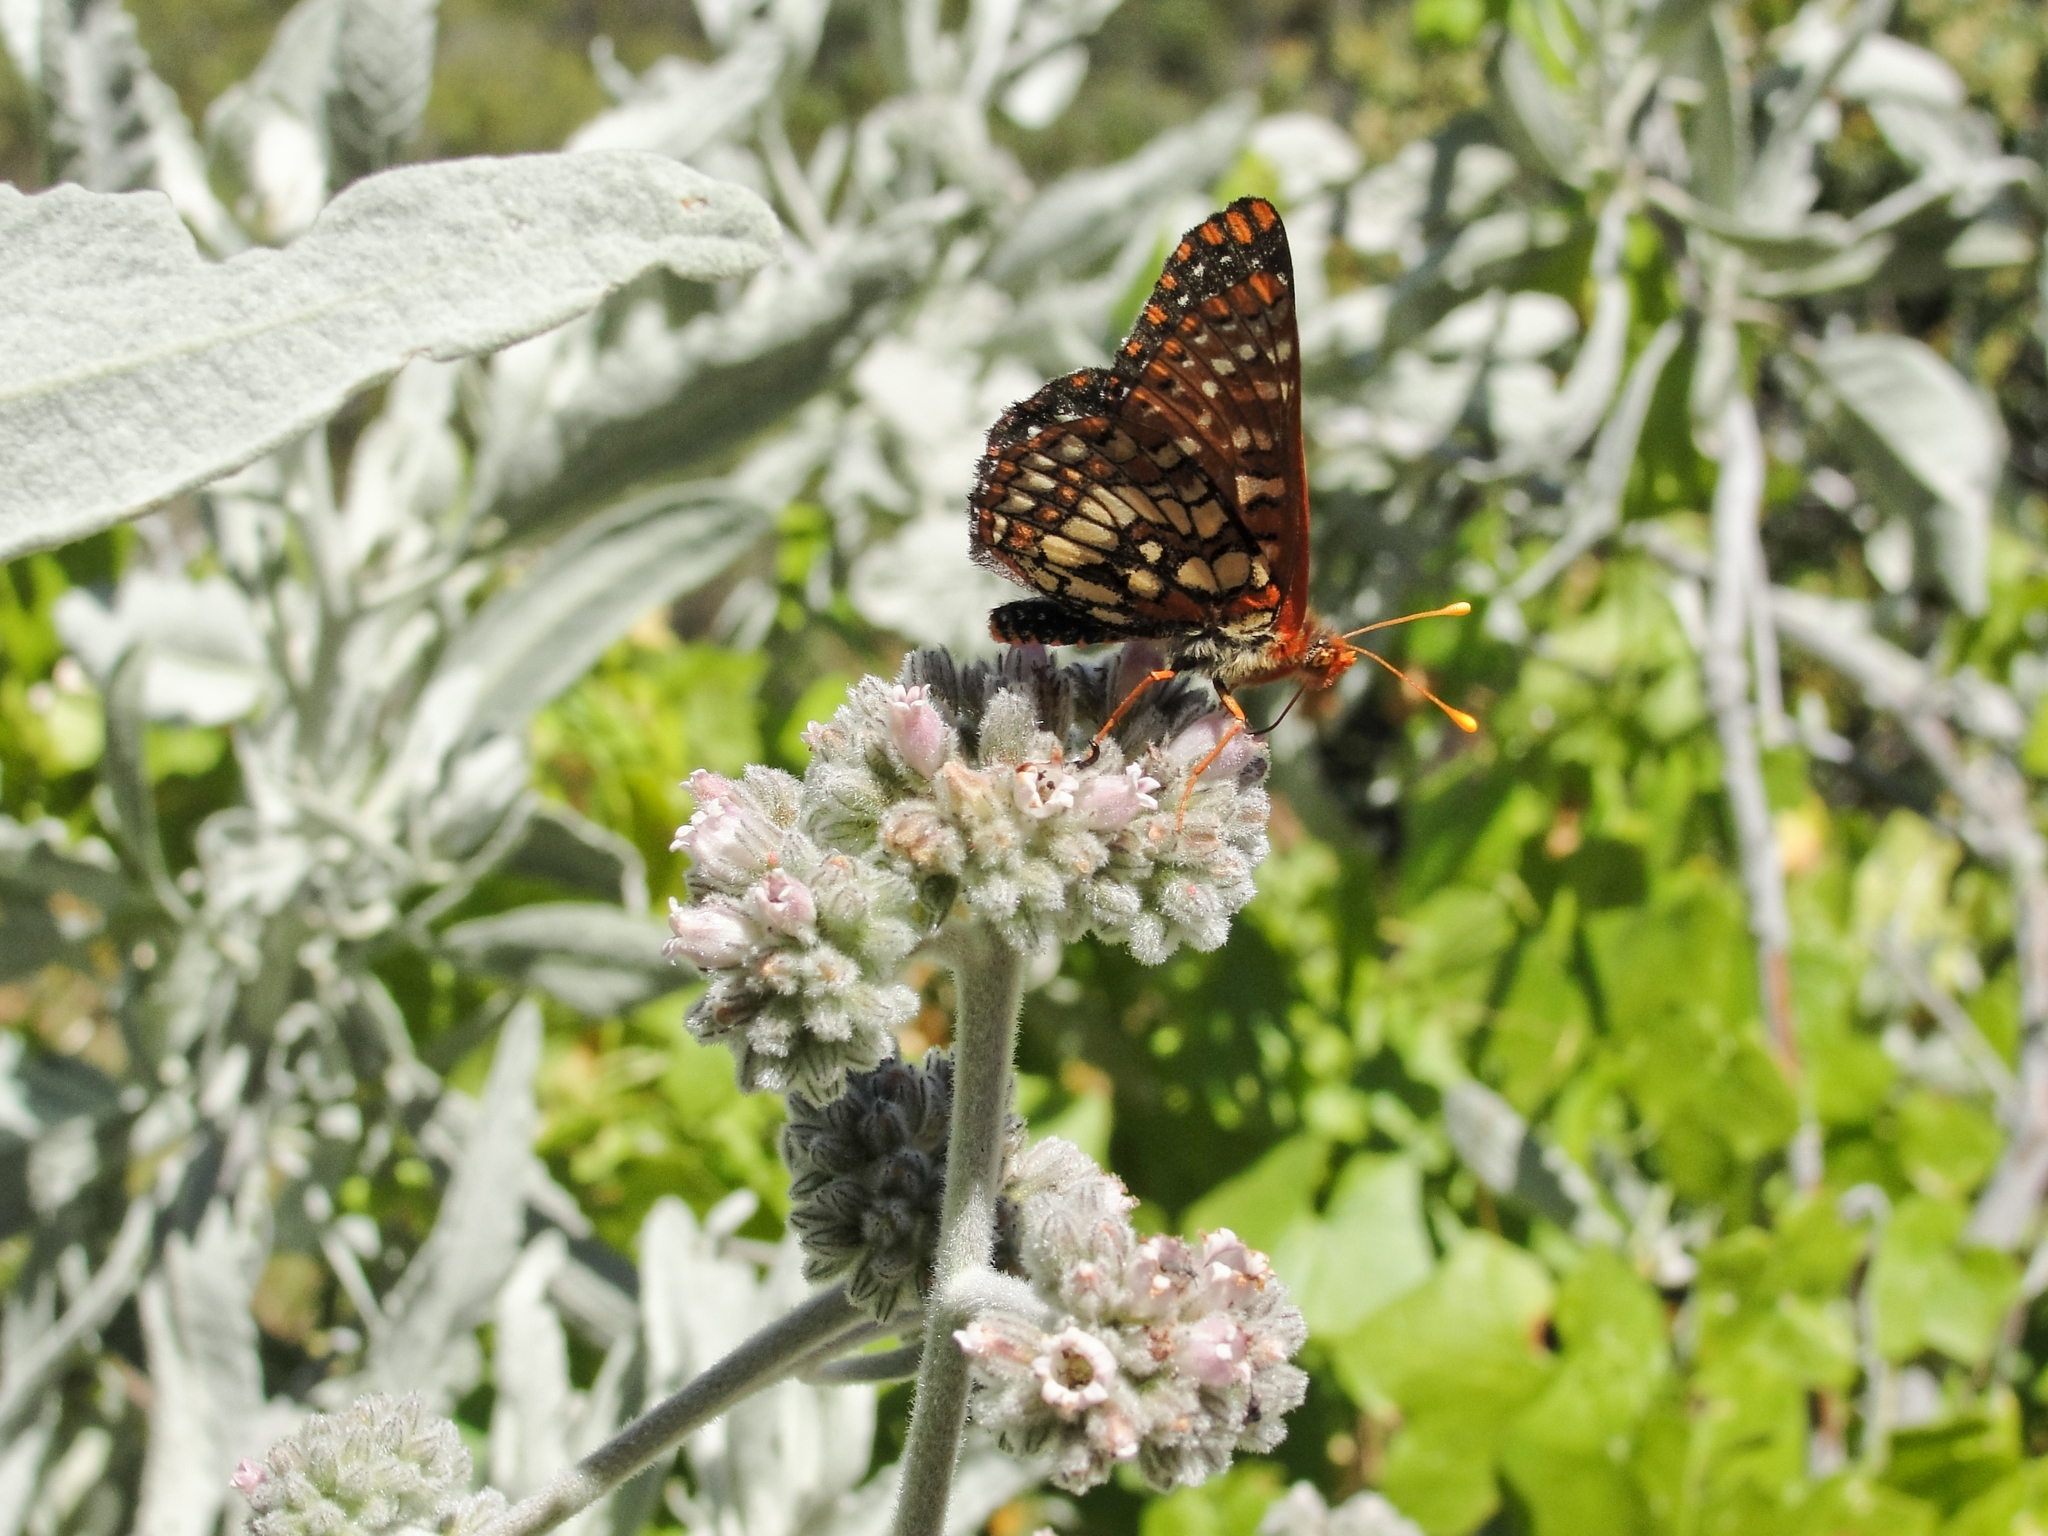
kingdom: Animalia
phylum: Arthropoda
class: Insecta
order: Lepidoptera
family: Nymphalidae
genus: Occidryas
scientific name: Occidryas chalcedona
